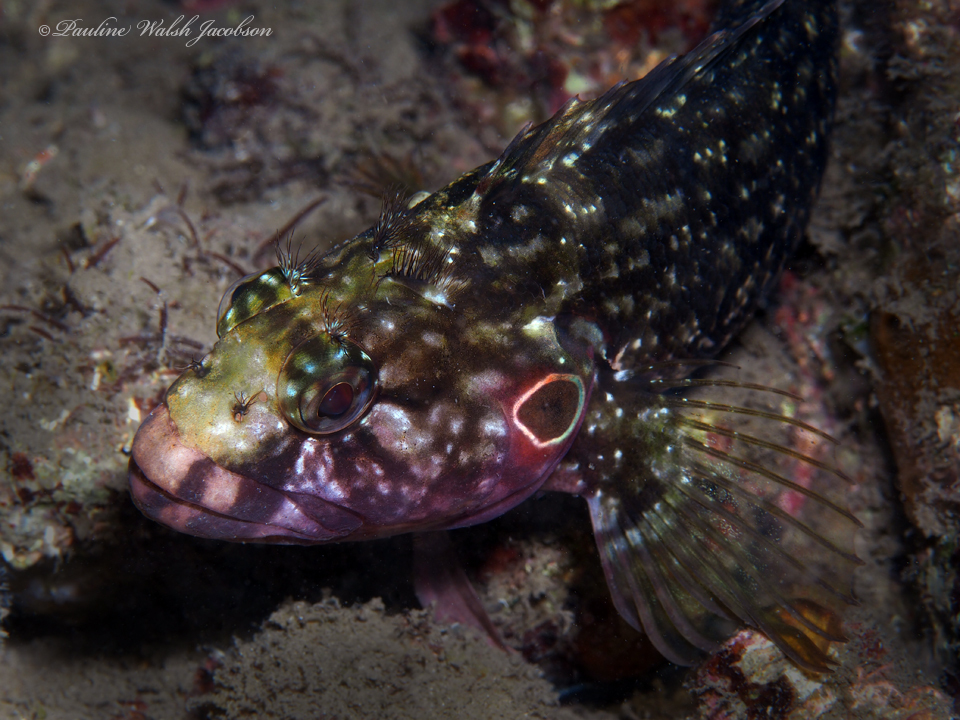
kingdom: Animalia
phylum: Chordata
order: Perciformes
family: Labrisomidae
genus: Labrisomus
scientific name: Labrisomus nuchipinnis
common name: Hairy blenny
